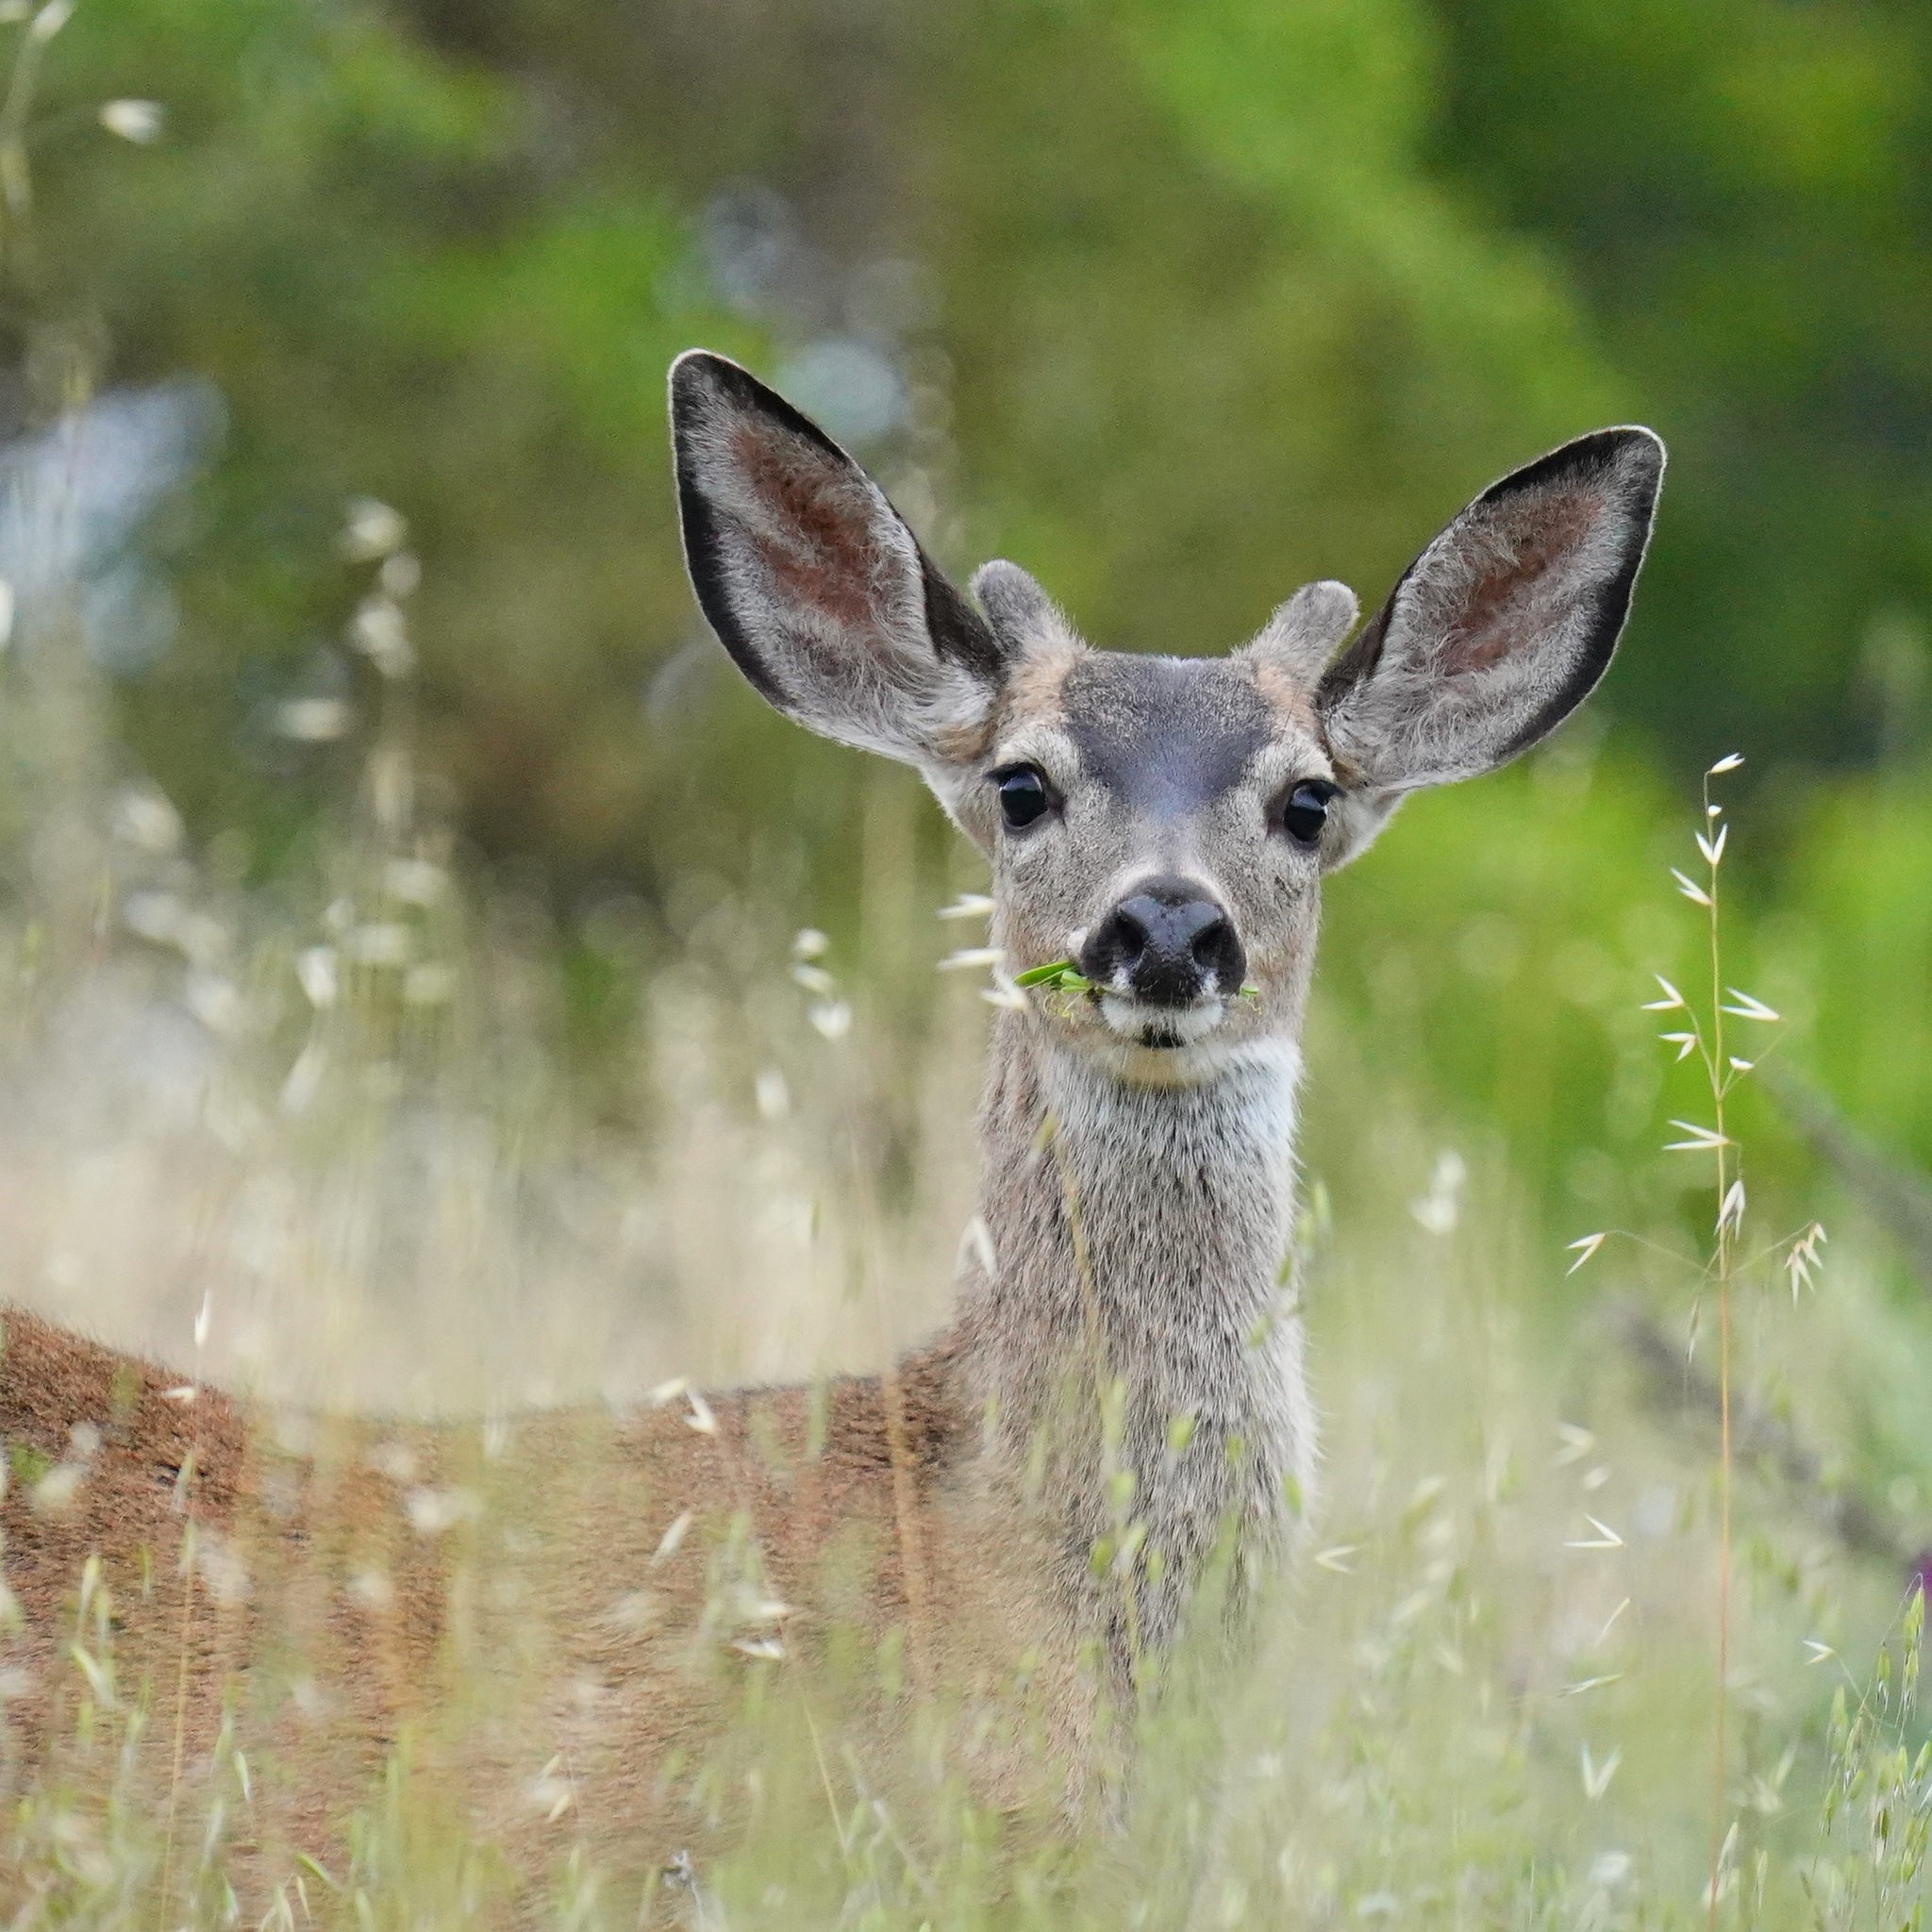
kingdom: Animalia
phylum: Chordata
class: Mammalia
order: Artiodactyla
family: Cervidae
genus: Odocoileus
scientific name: Odocoileus hemionus
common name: Mule deer
